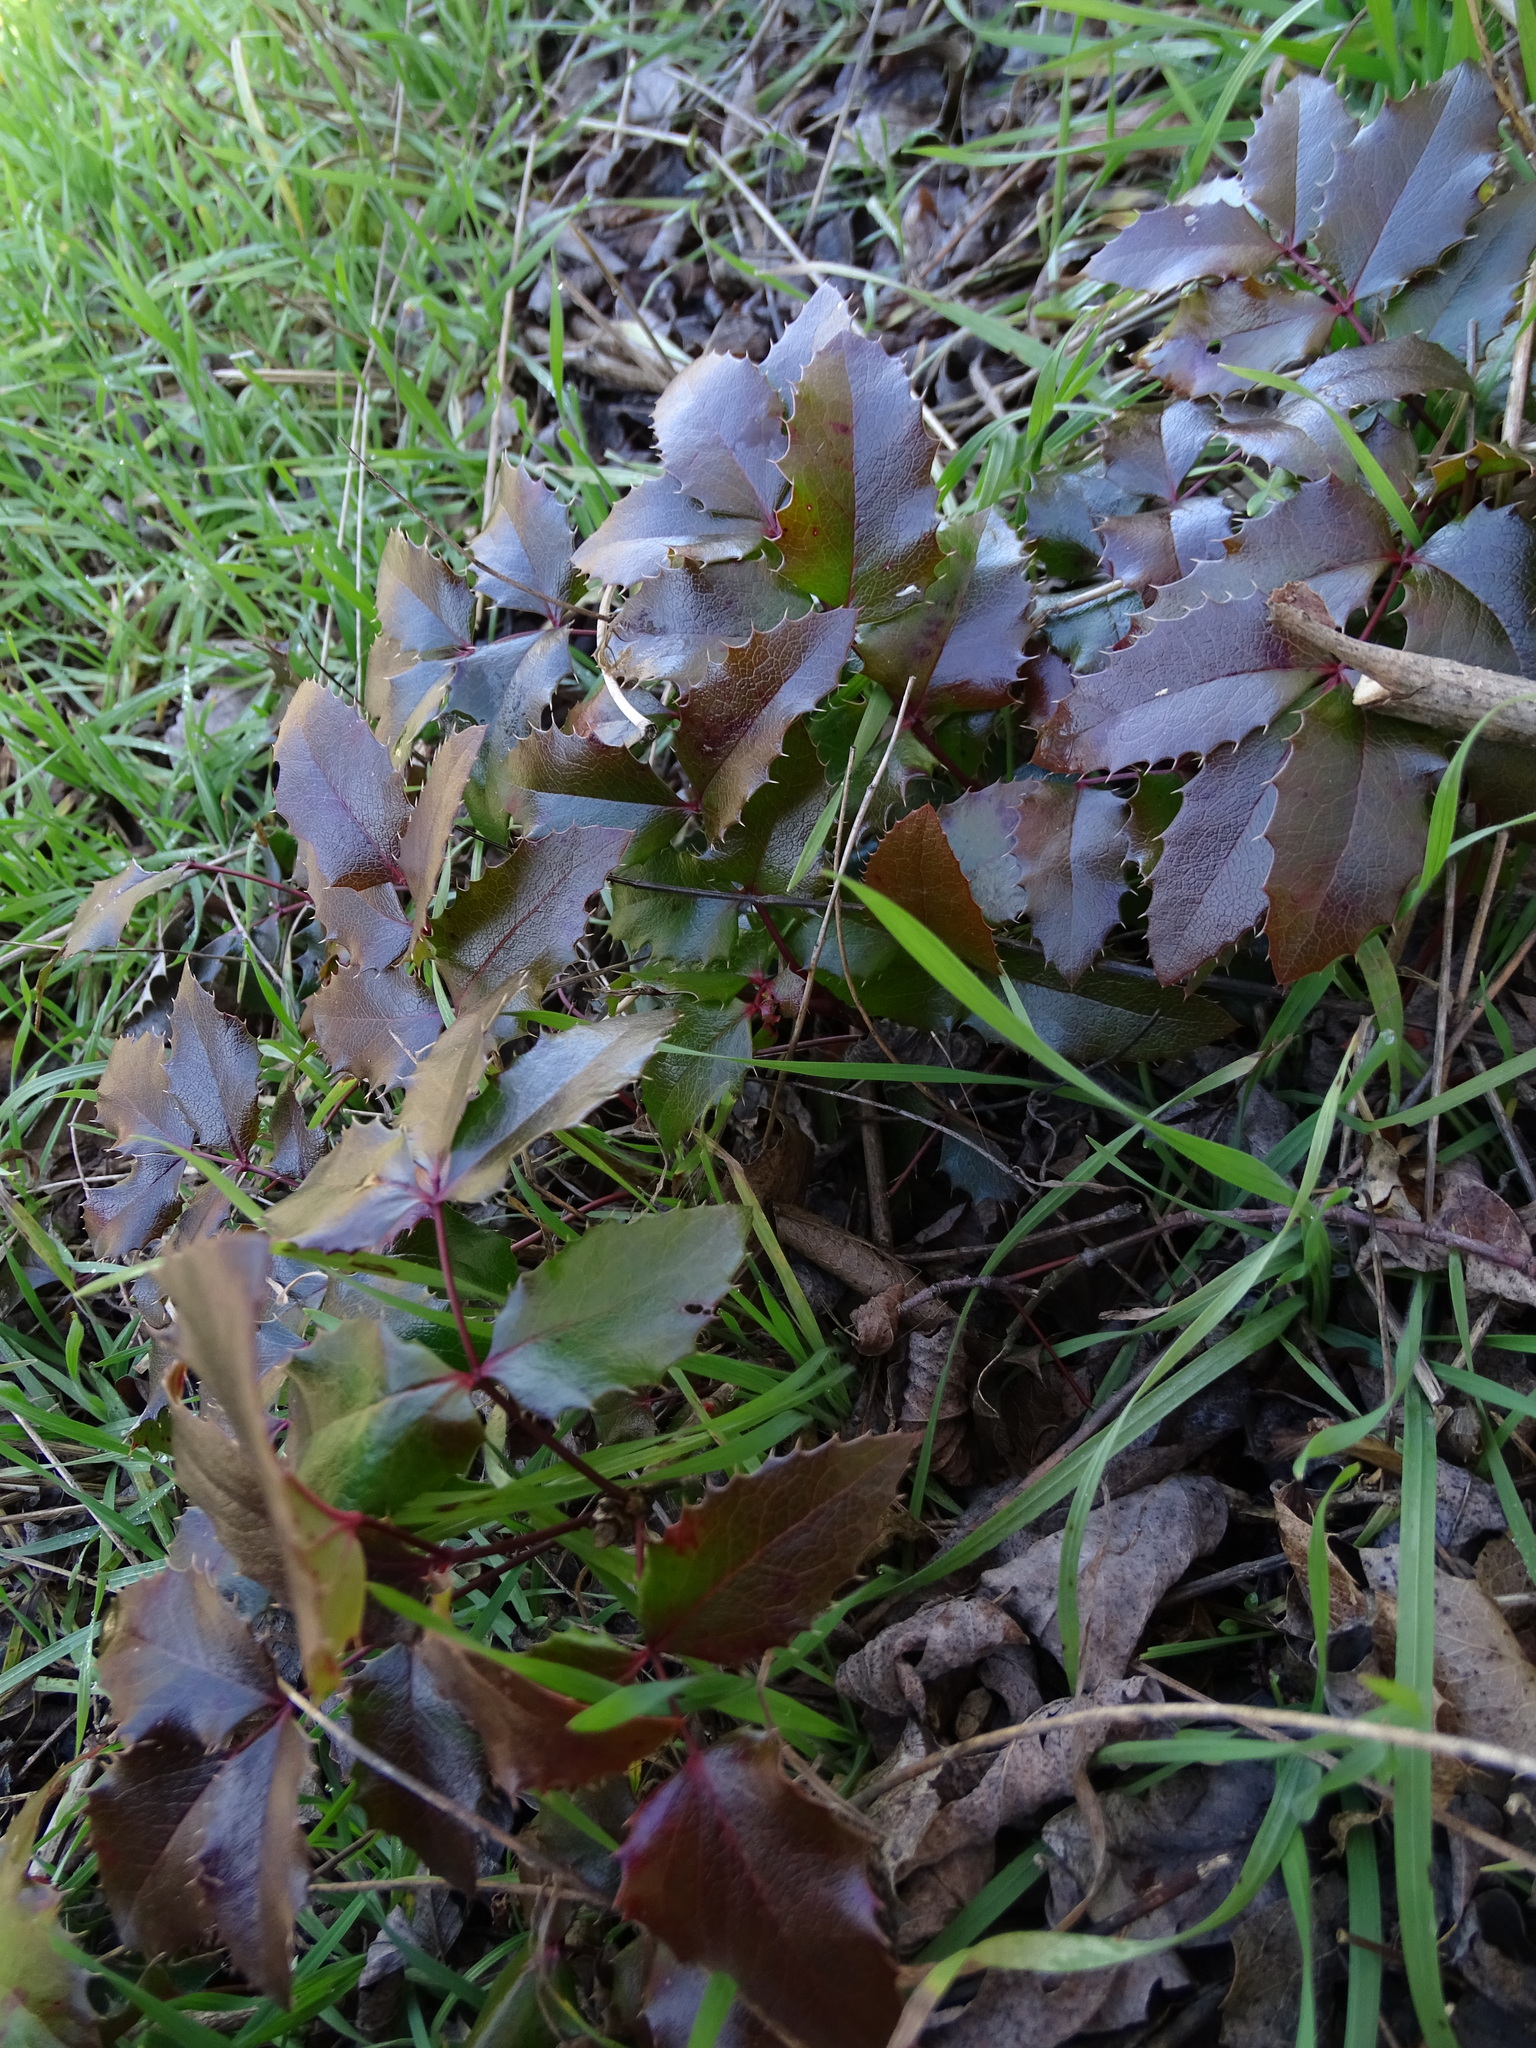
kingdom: Plantae
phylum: Tracheophyta
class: Magnoliopsida
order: Ranunculales
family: Berberidaceae
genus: Mahonia
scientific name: Mahonia aquifolium
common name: Oregon-grape
